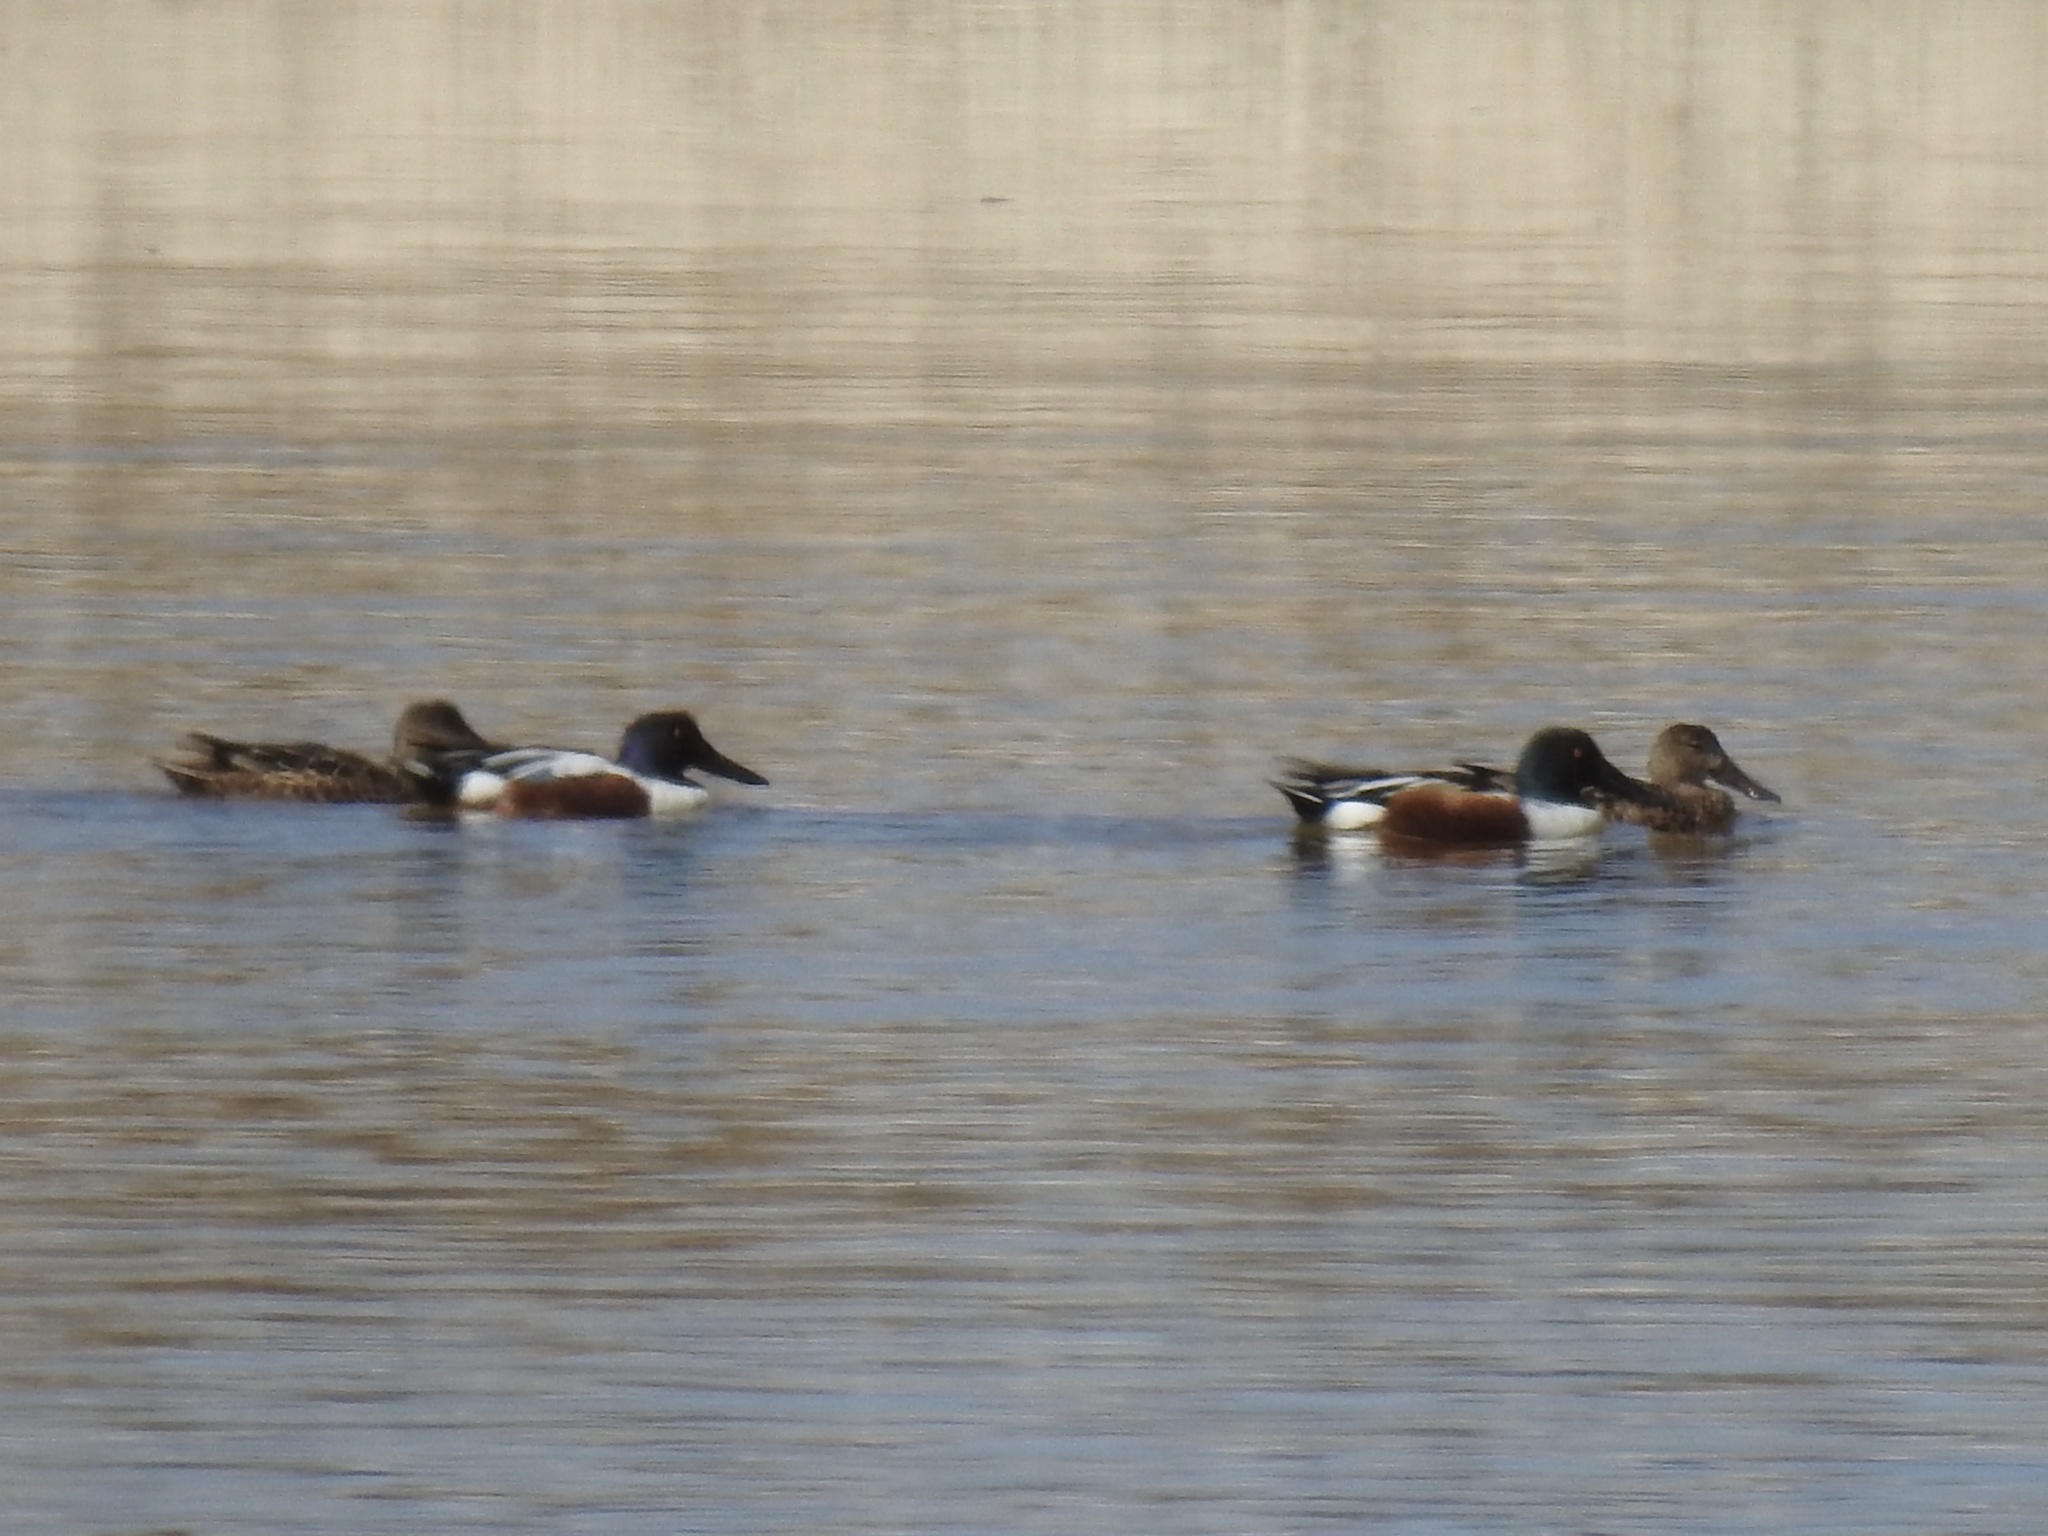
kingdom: Animalia
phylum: Chordata
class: Aves
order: Anseriformes
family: Anatidae
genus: Spatula
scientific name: Spatula clypeata
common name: Northern shoveler
